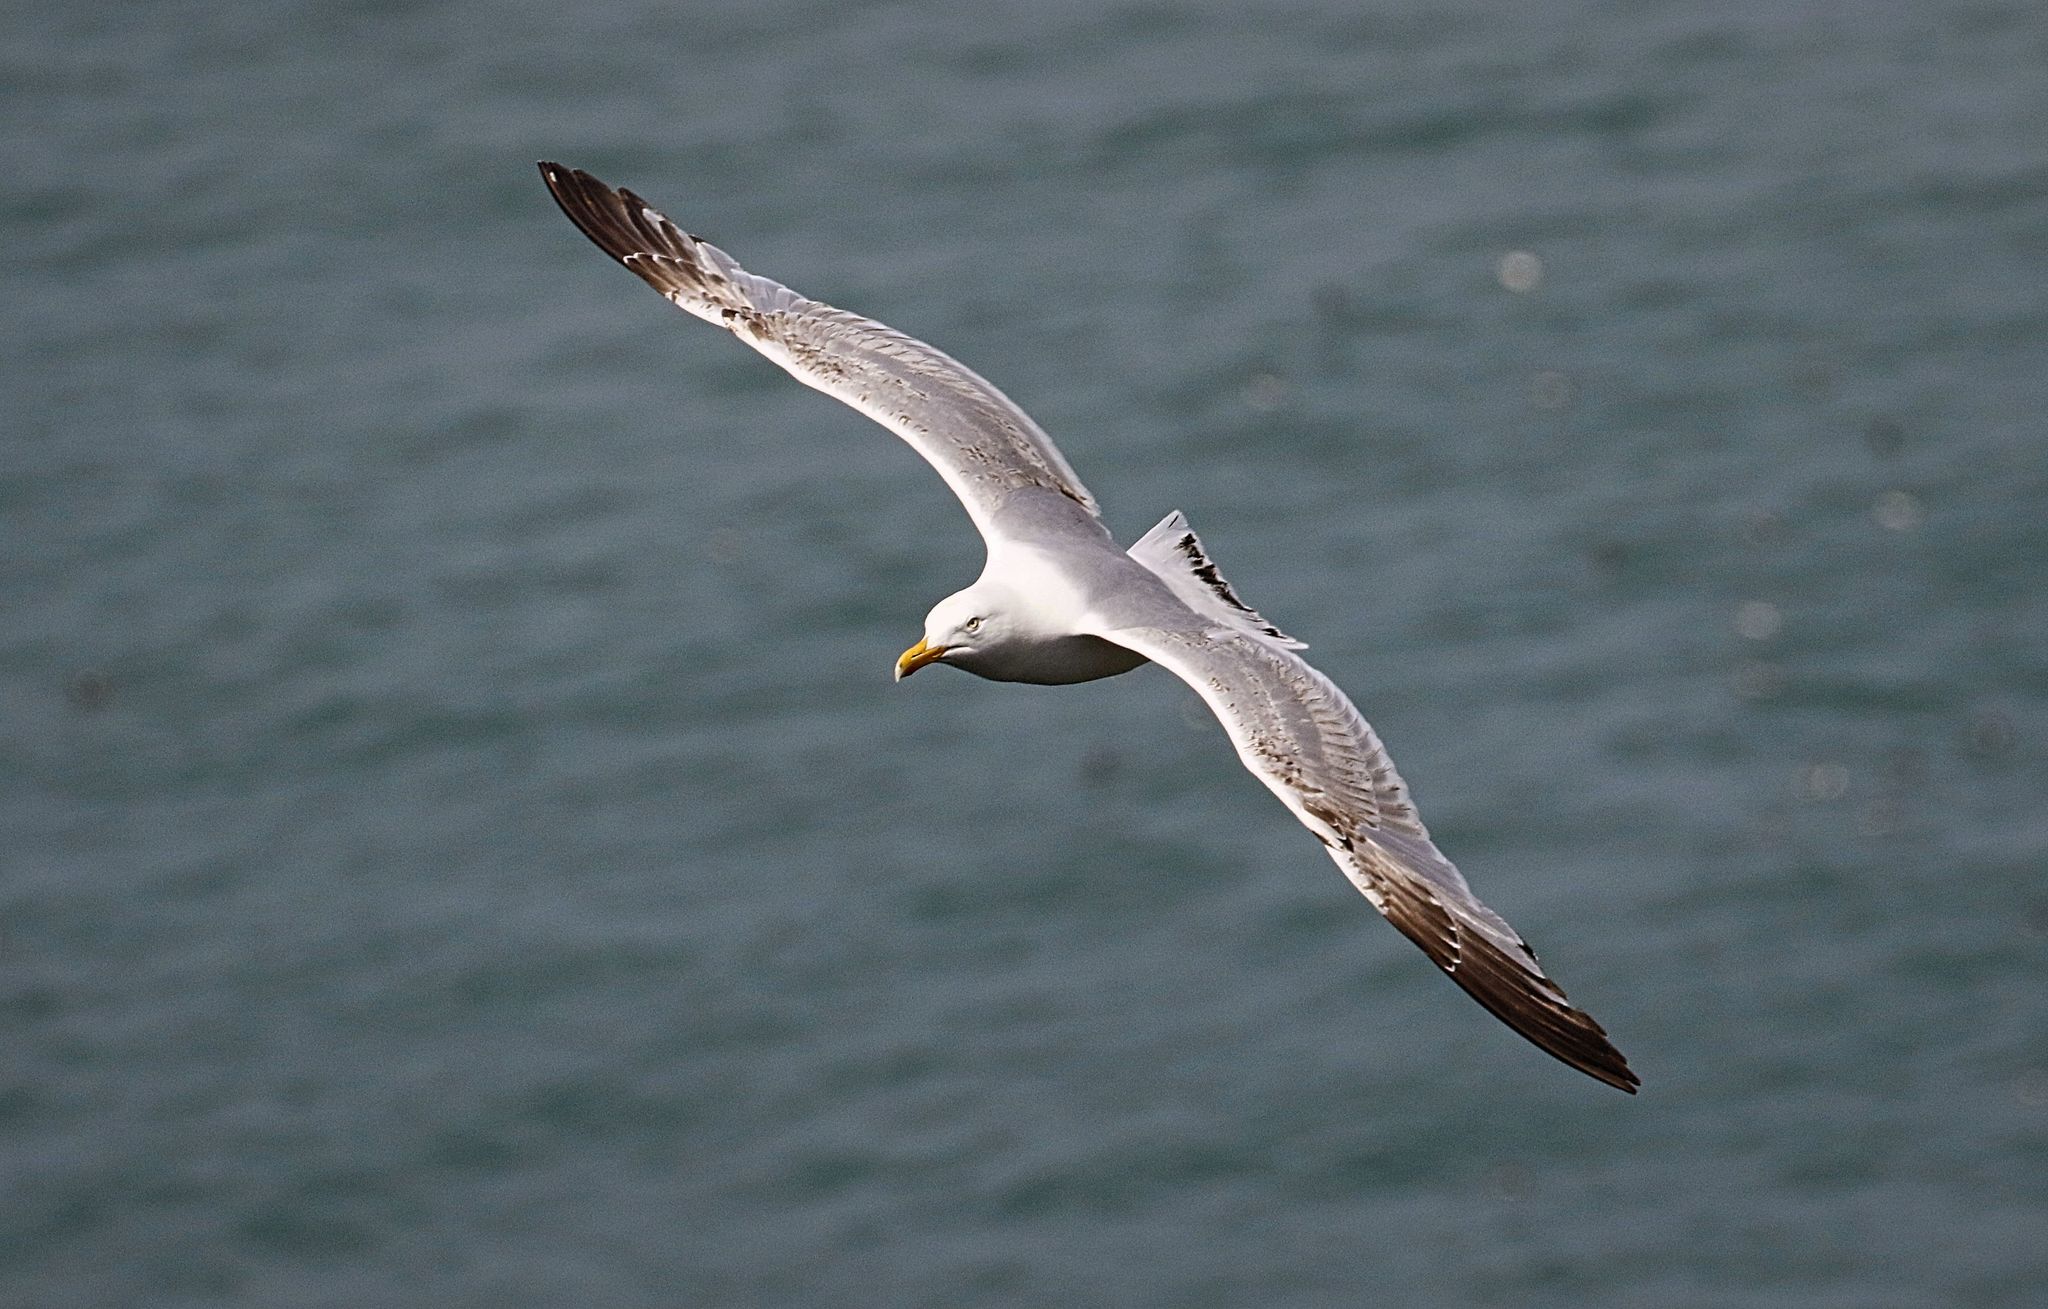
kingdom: Animalia
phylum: Chordata
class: Aves
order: Charadriiformes
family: Laridae
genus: Larus
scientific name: Larus argentatus
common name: Herring gull
